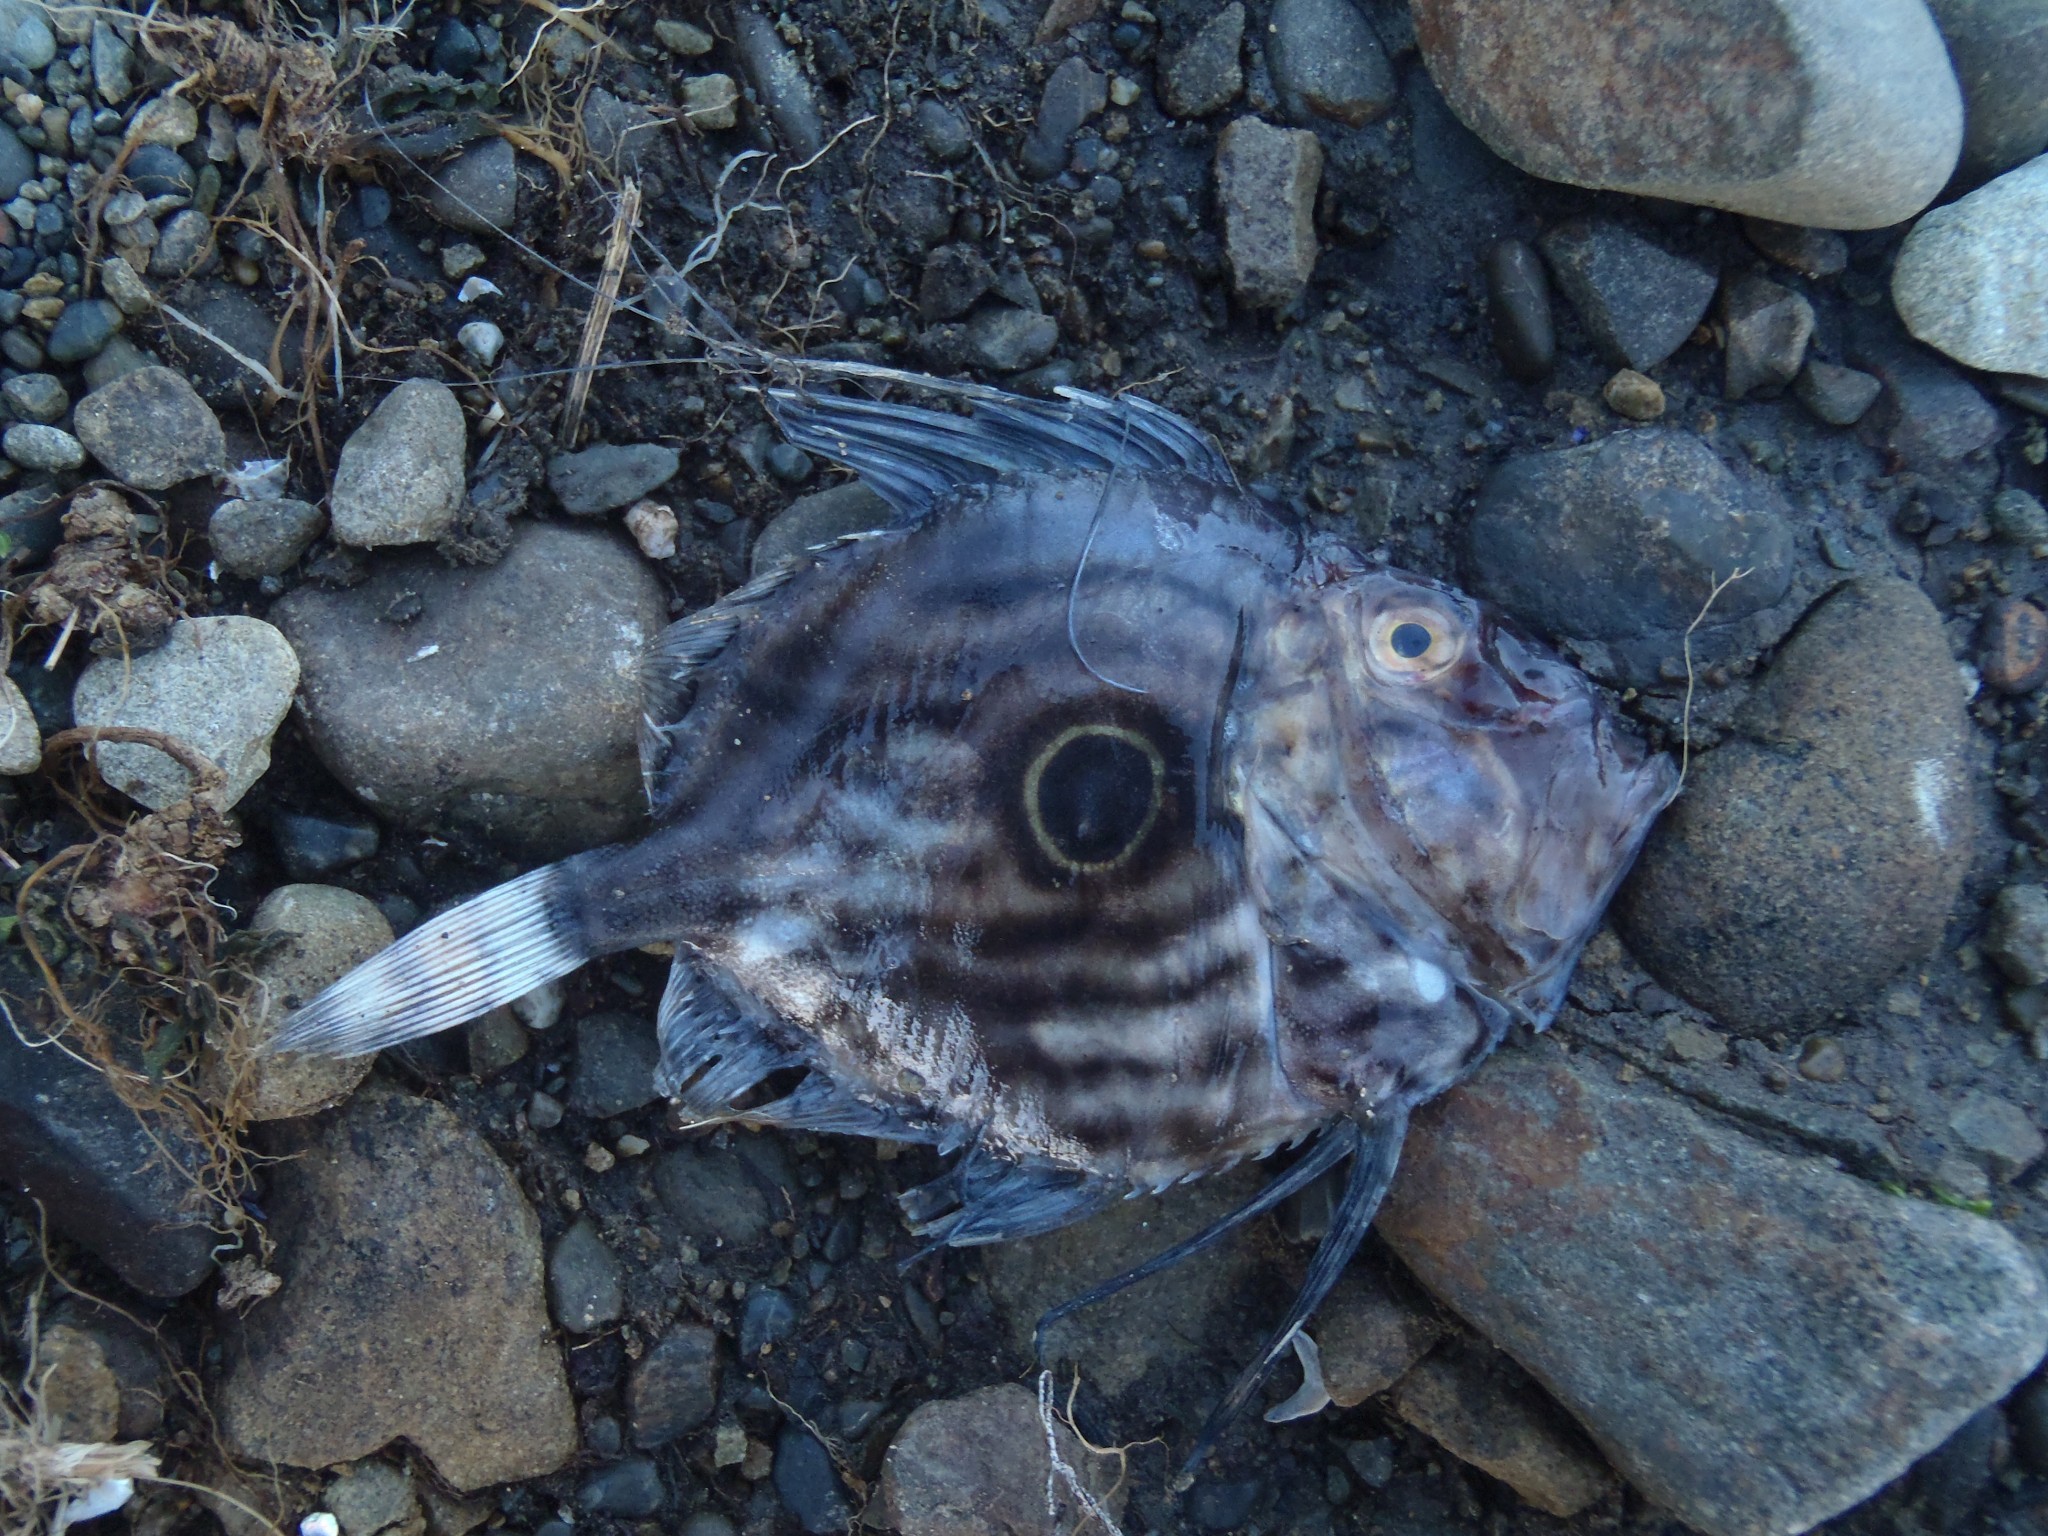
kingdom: Animalia
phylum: Chordata
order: Zeiformes
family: Zeidae
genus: Zeus
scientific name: Zeus faber
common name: John dory
